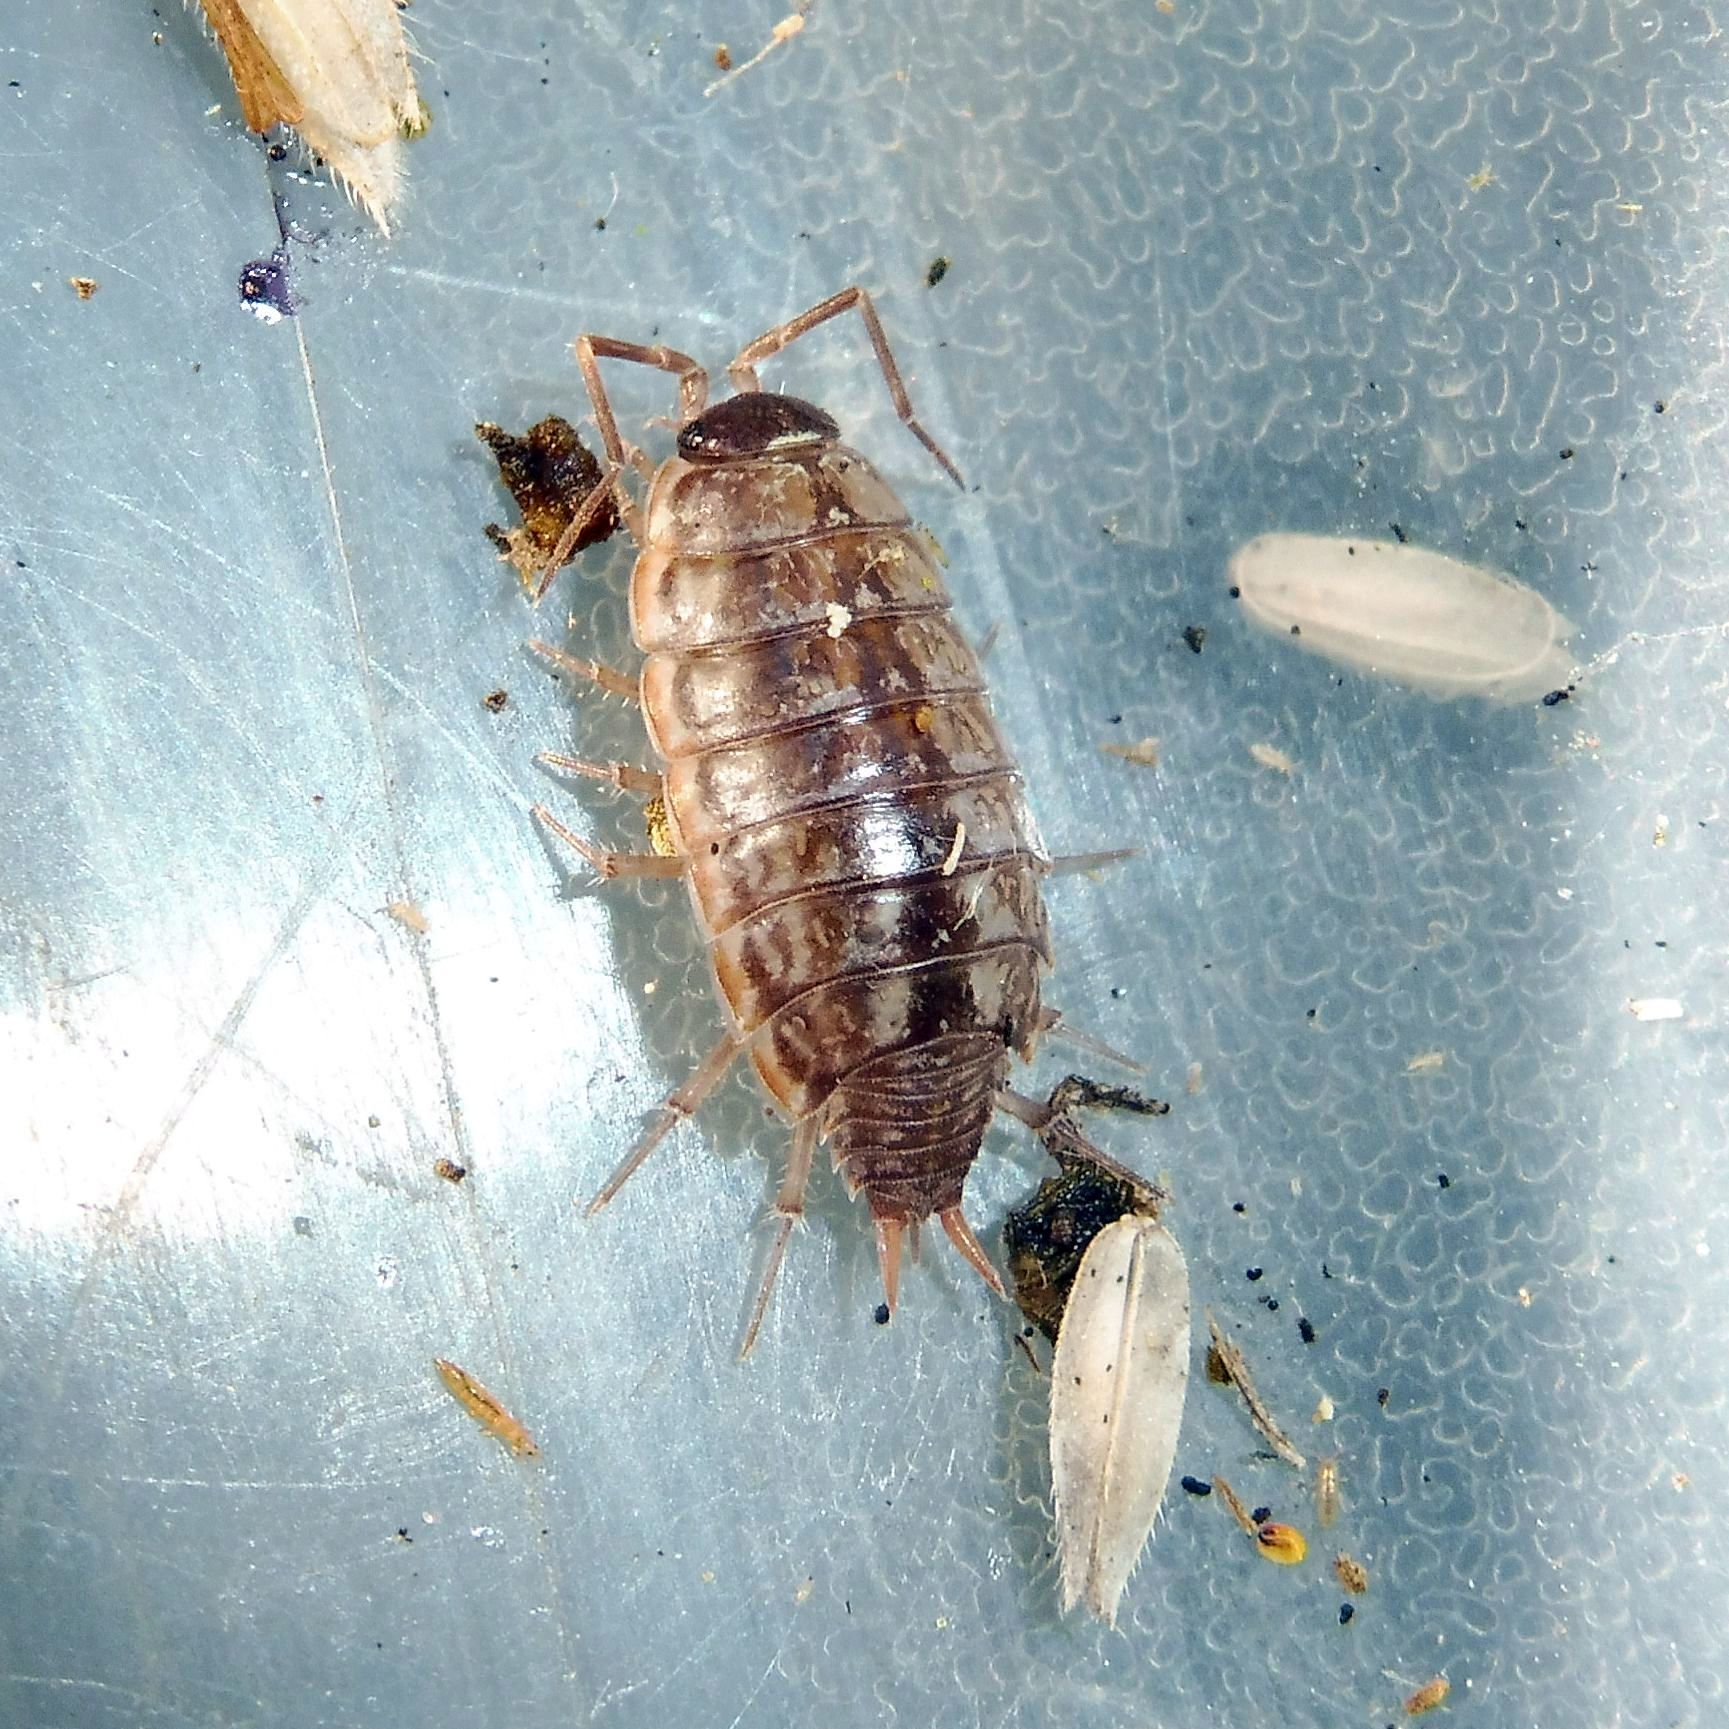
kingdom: Animalia
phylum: Arthropoda
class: Malacostraca
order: Isopoda
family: Philosciidae
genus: Philoscia
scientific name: Philoscia muscorum
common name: Common striped woodlouse
